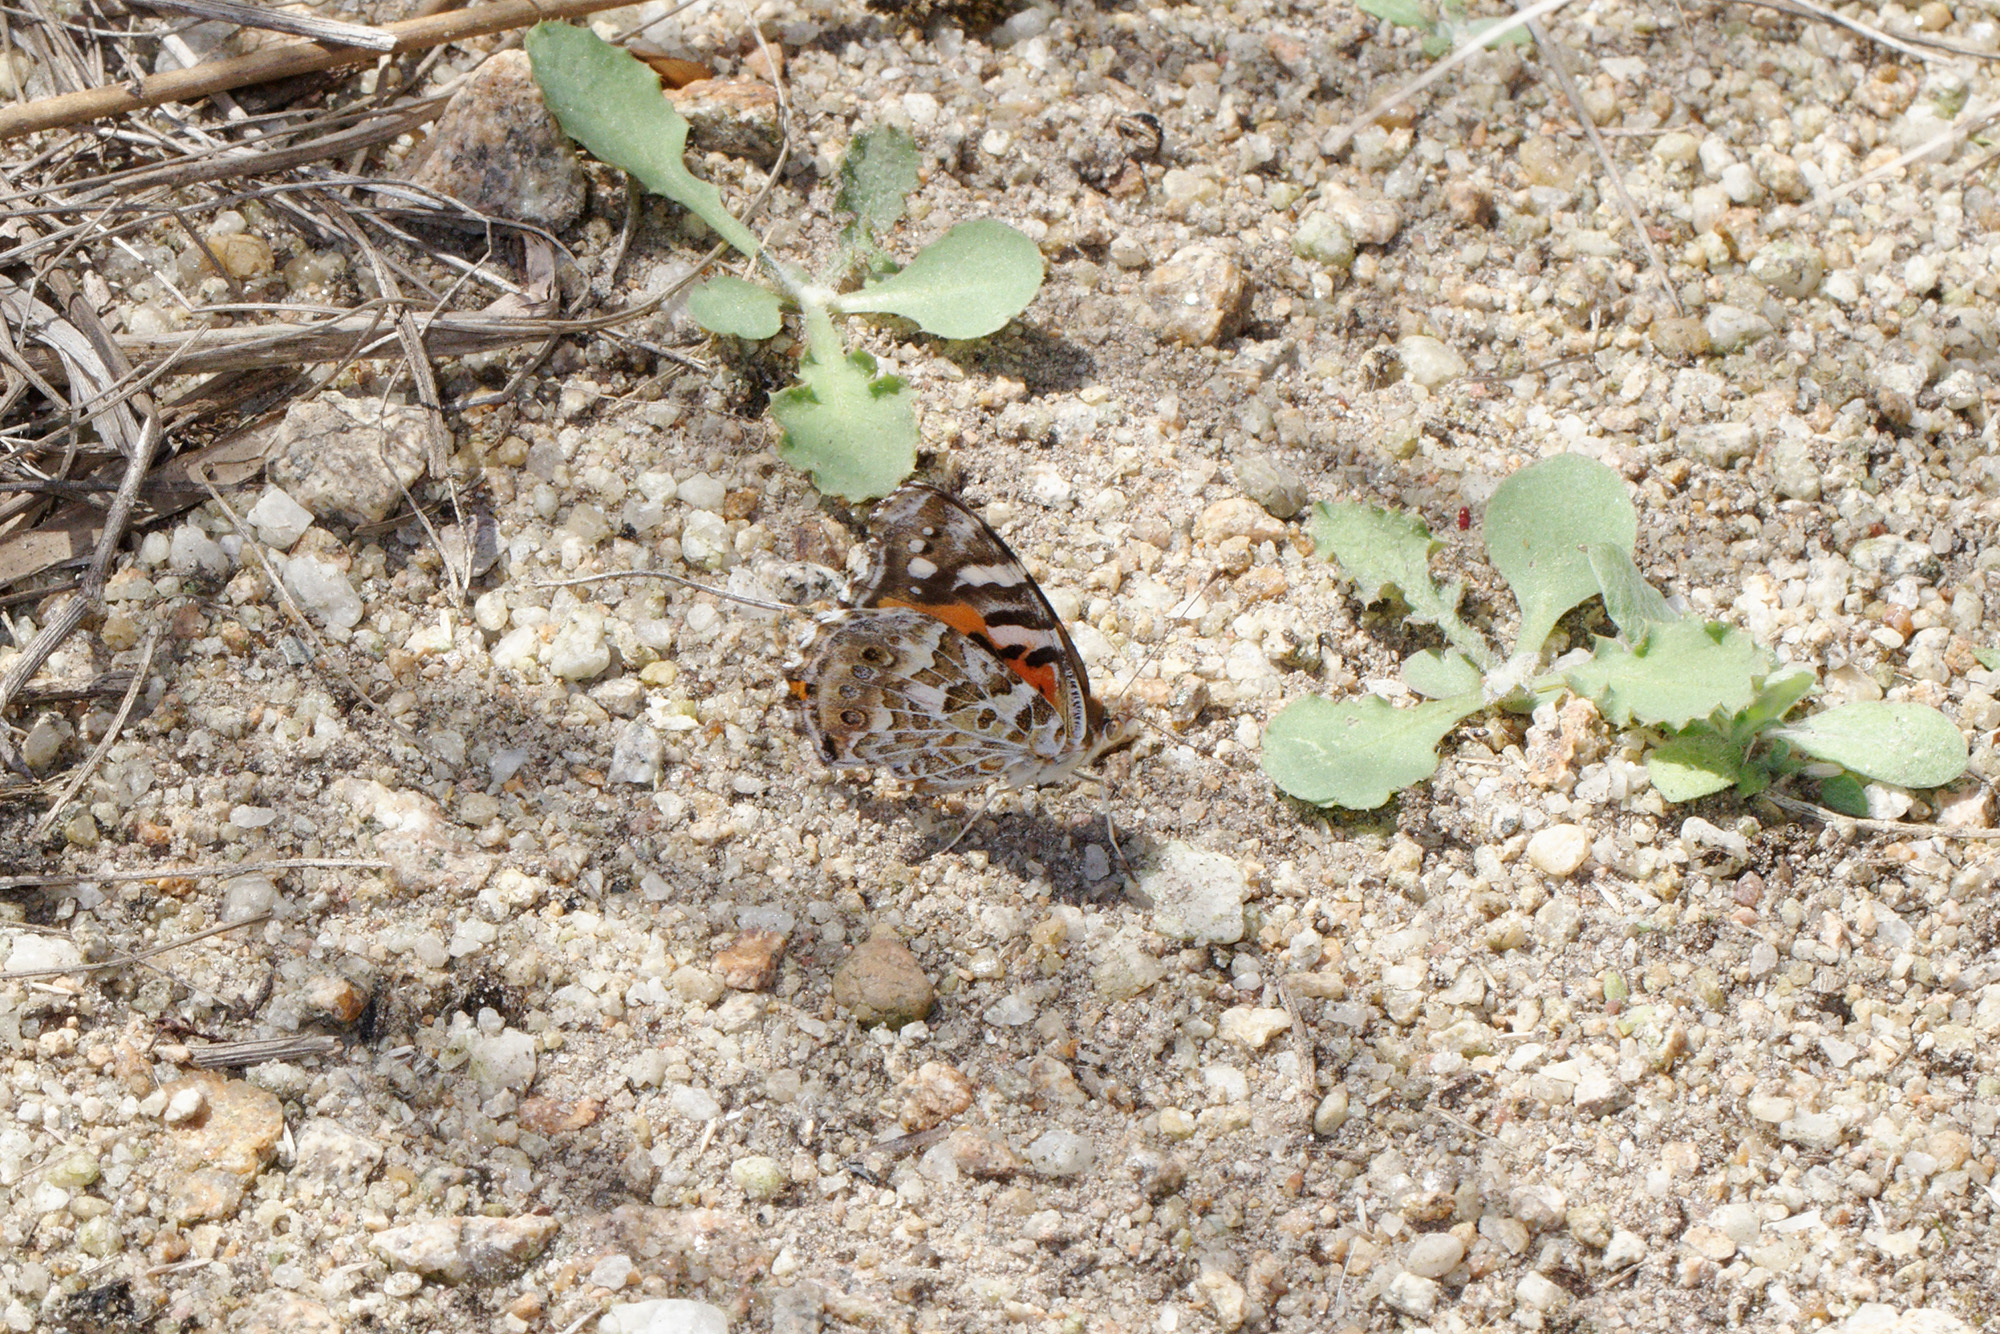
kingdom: Animalia
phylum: Arthropoda
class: Insecta
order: Lepidoptera
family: Nymphalidae
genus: Vanessa
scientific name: Vanessa kershawi
